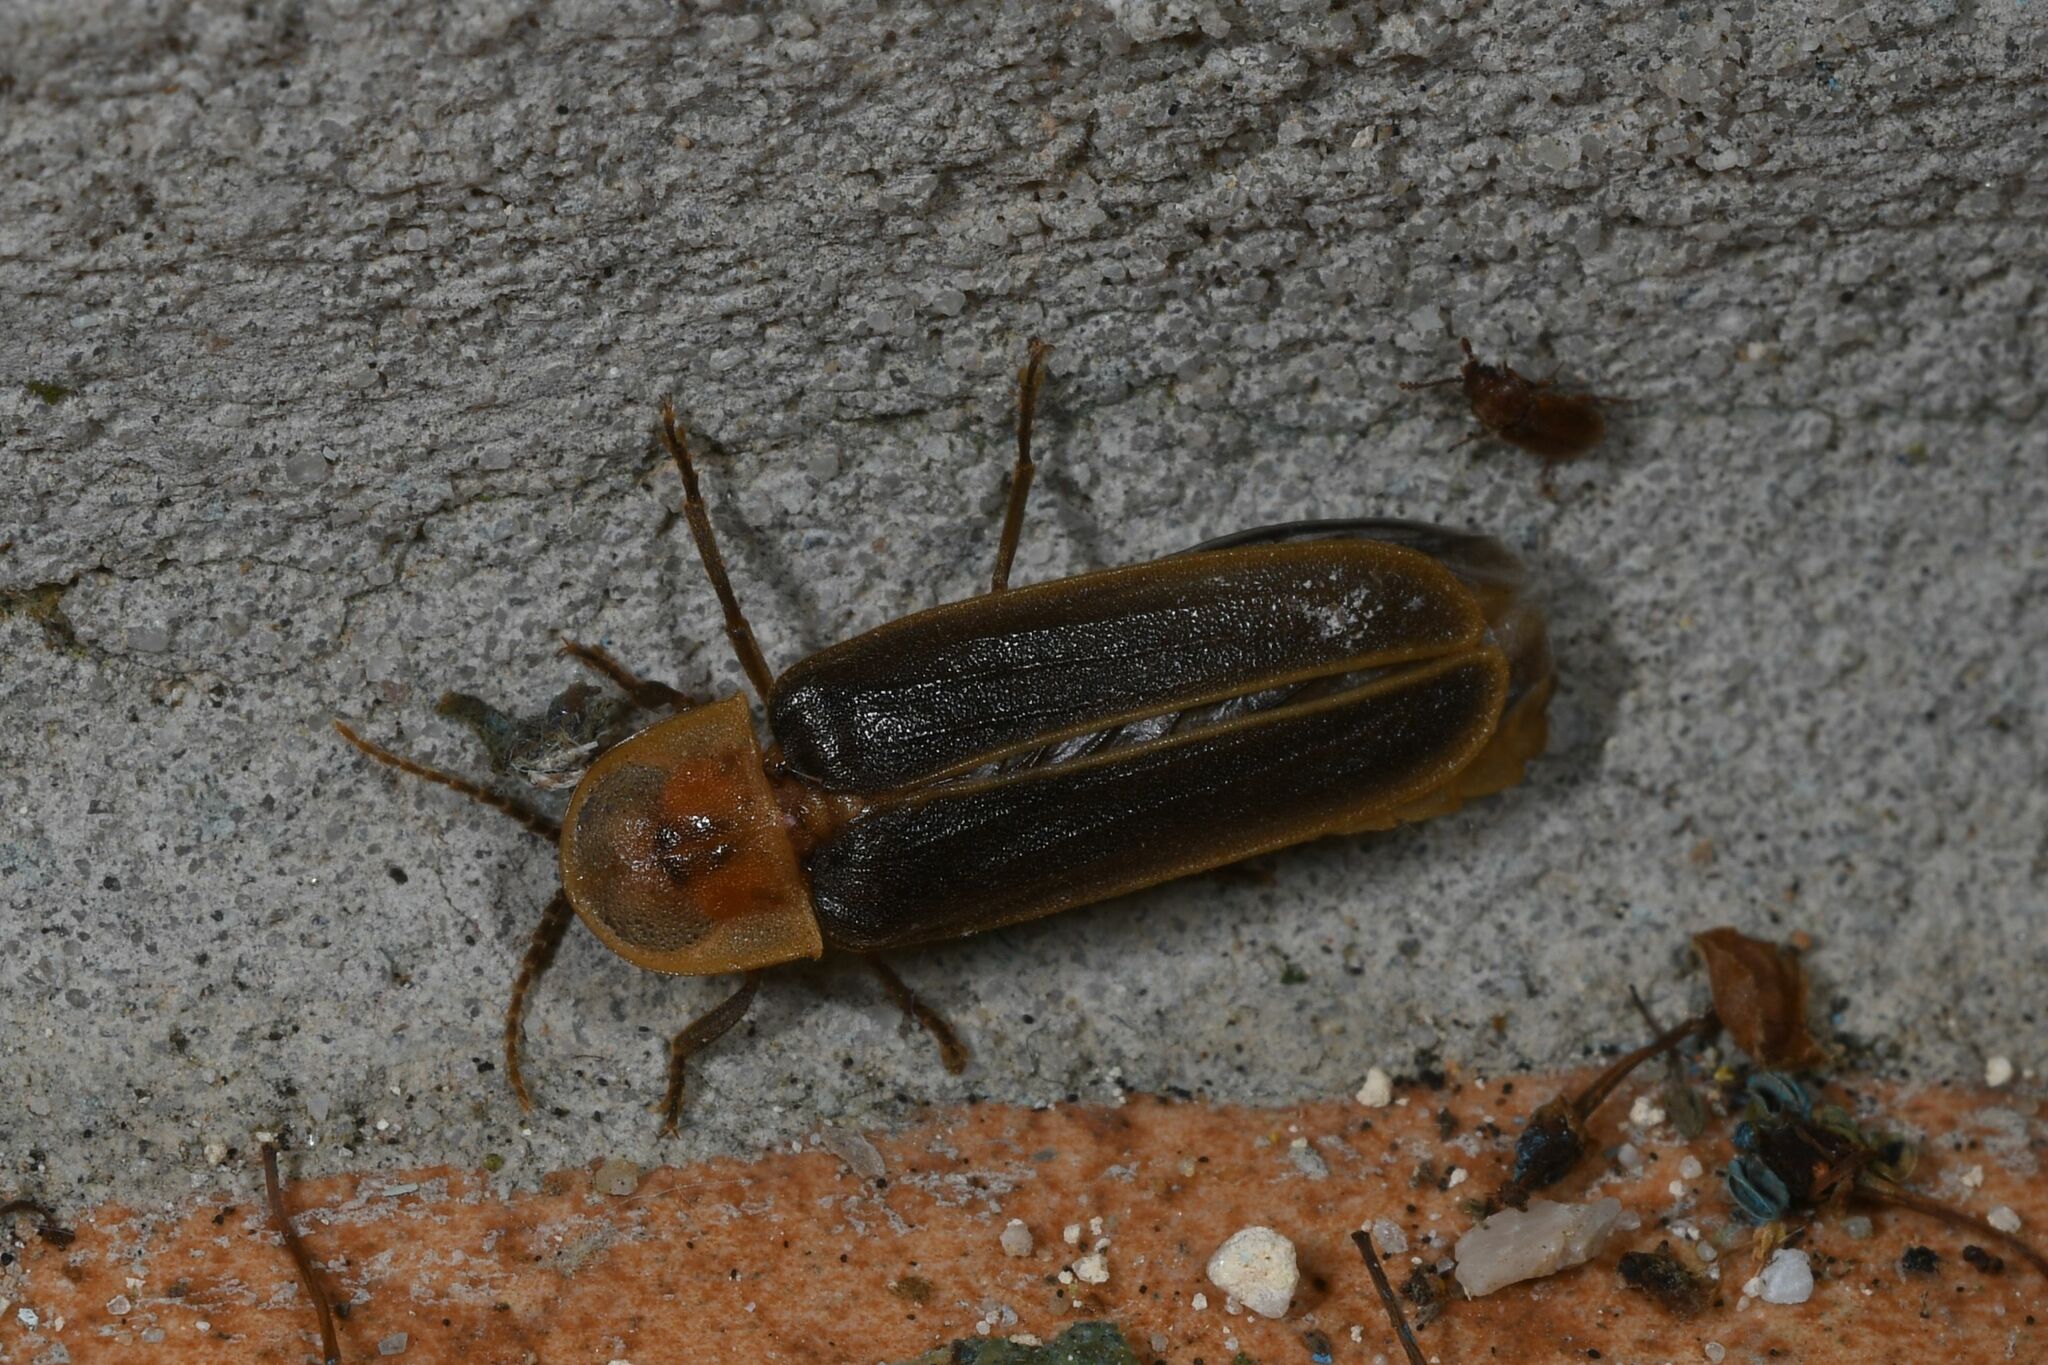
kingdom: Animalia
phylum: Arthropoda
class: Insecta
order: Coleoptera
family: Lampyridae
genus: Nyctophila
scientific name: Nyctophila reichii
